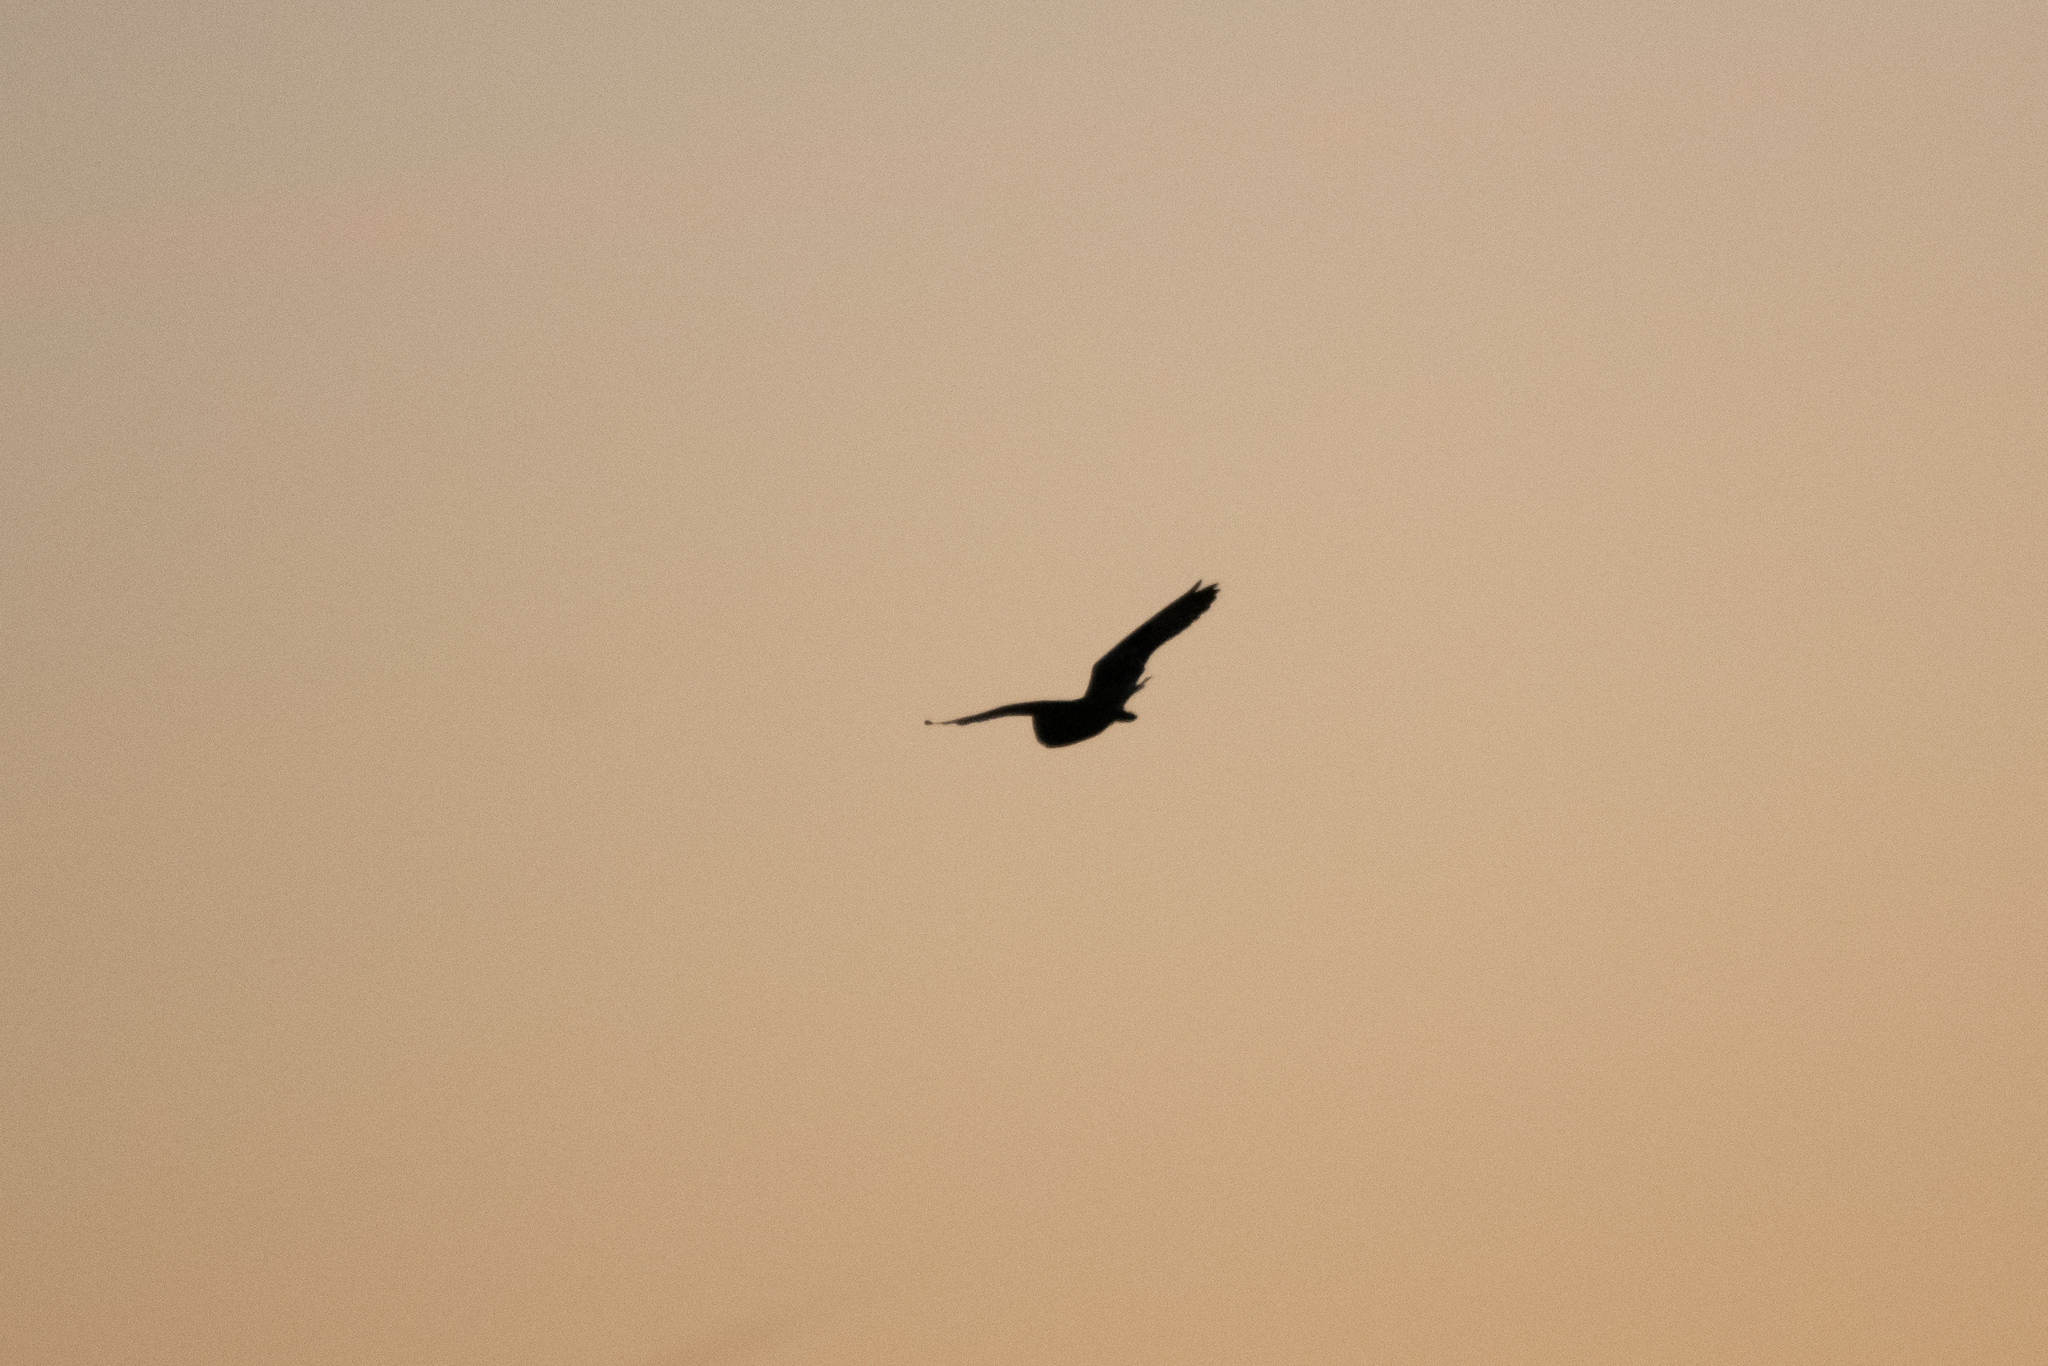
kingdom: Animalia
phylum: Chordata
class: Aves
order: Strigiformes
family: Strigidae
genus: Asio
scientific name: Asio flammeus
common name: Short-eared owl
